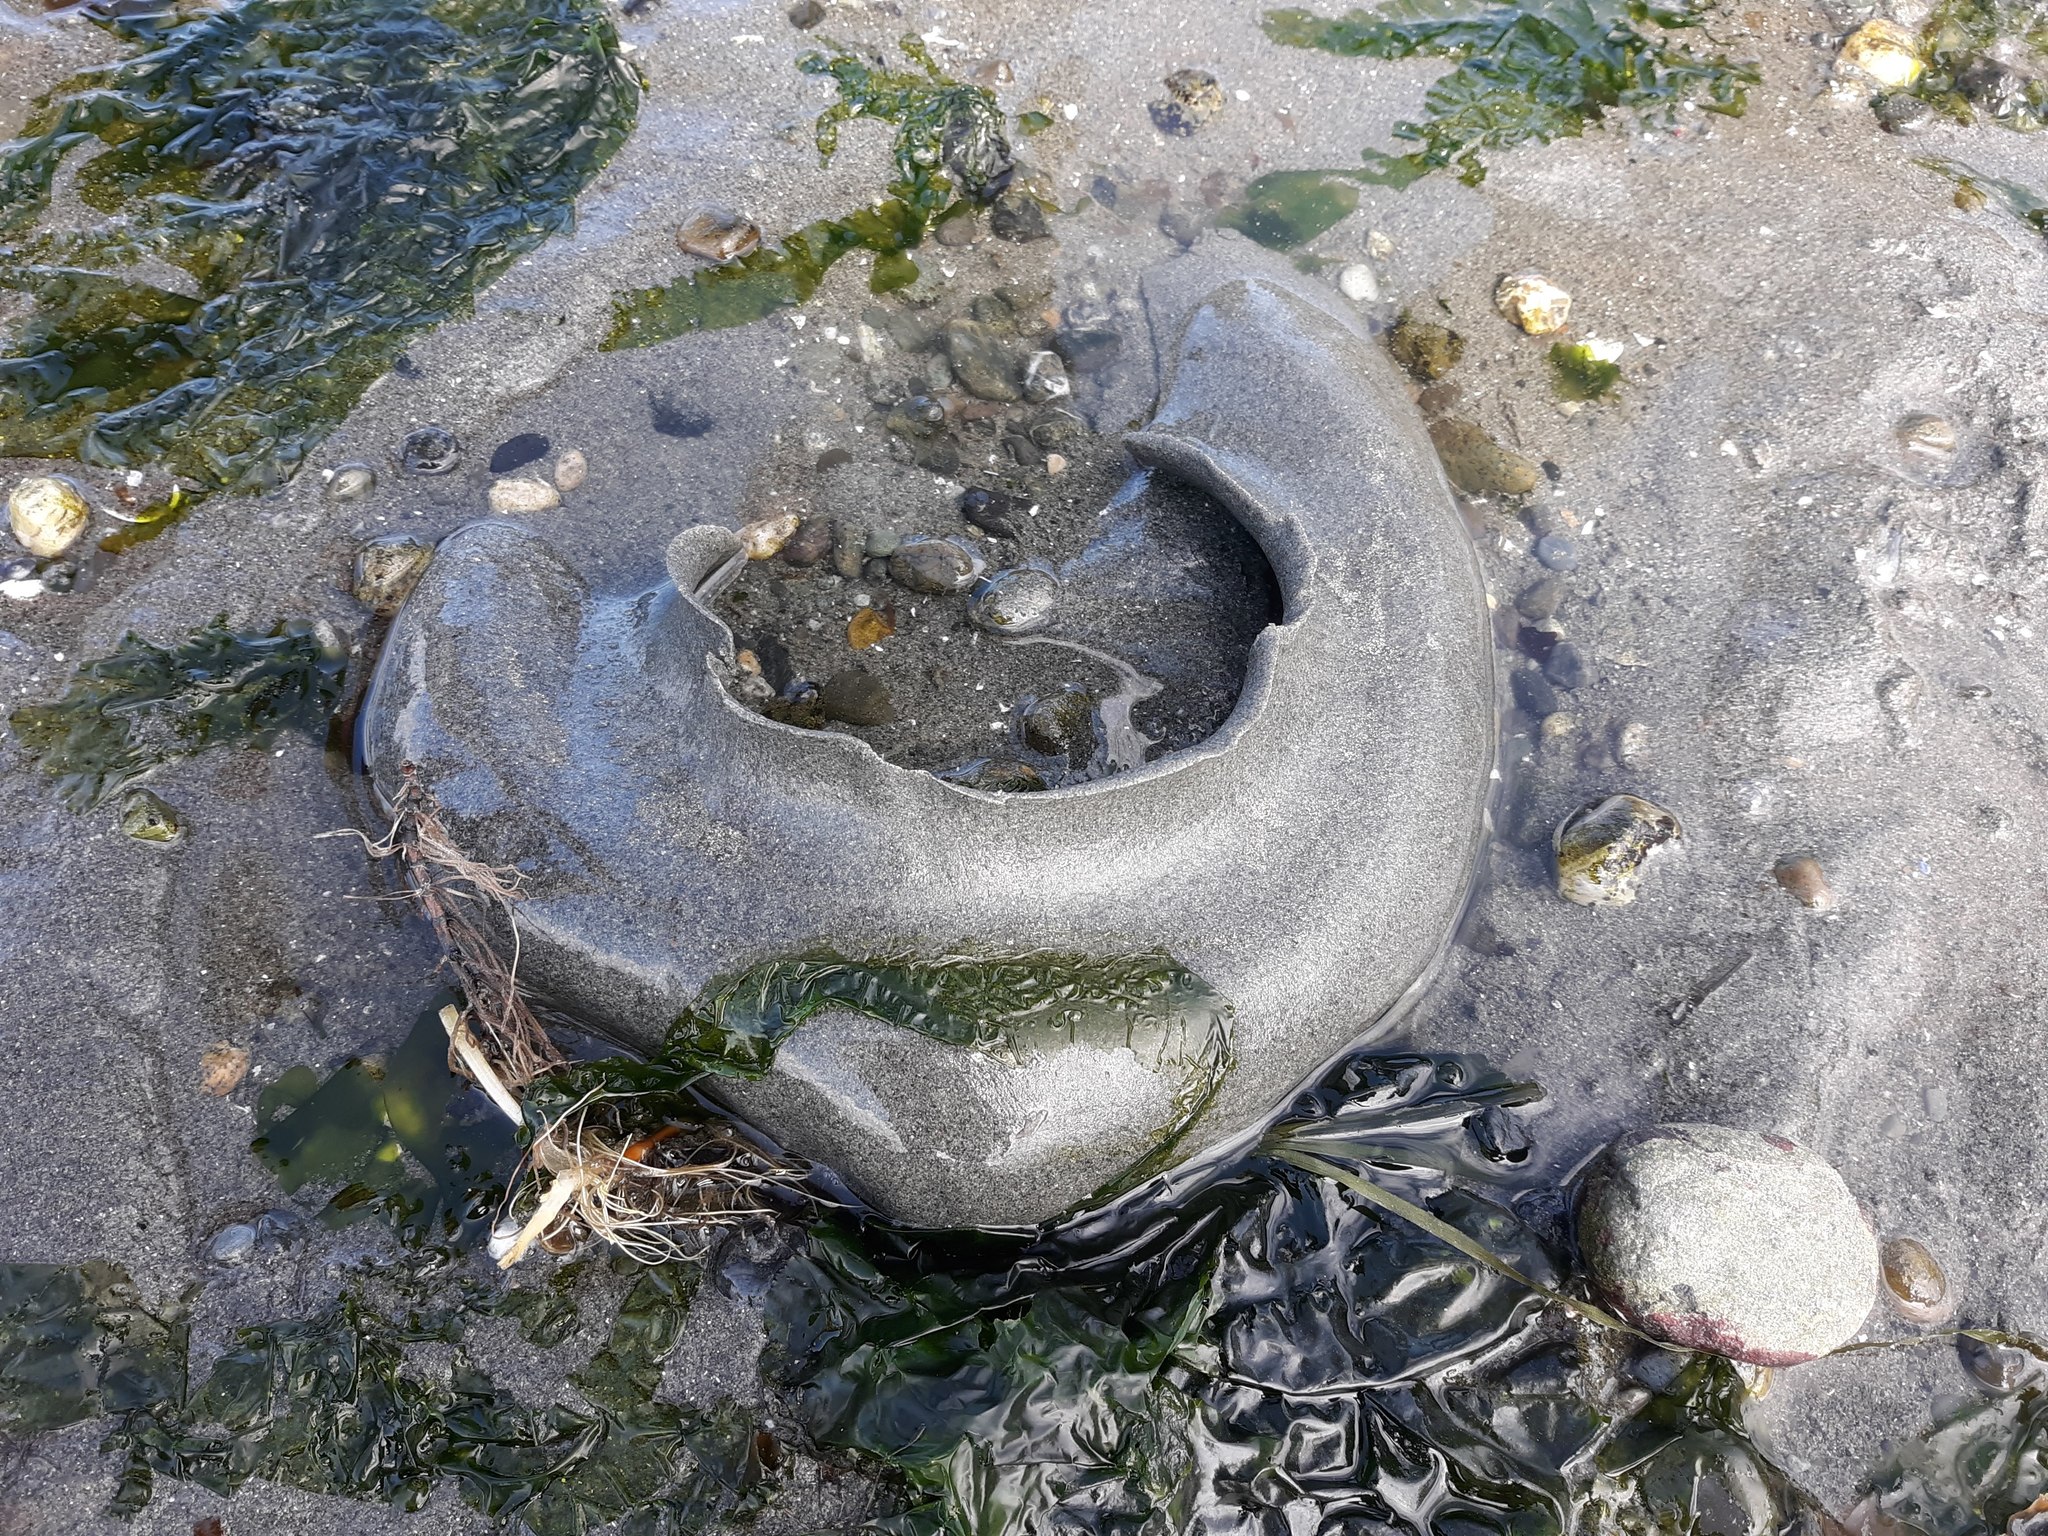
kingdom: Animalia
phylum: Mollusca
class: Gastropoda
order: Littorinimorpha
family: Naticidae
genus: Neverita
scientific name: Neverita lewisii
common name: Lewis' moonsnail
